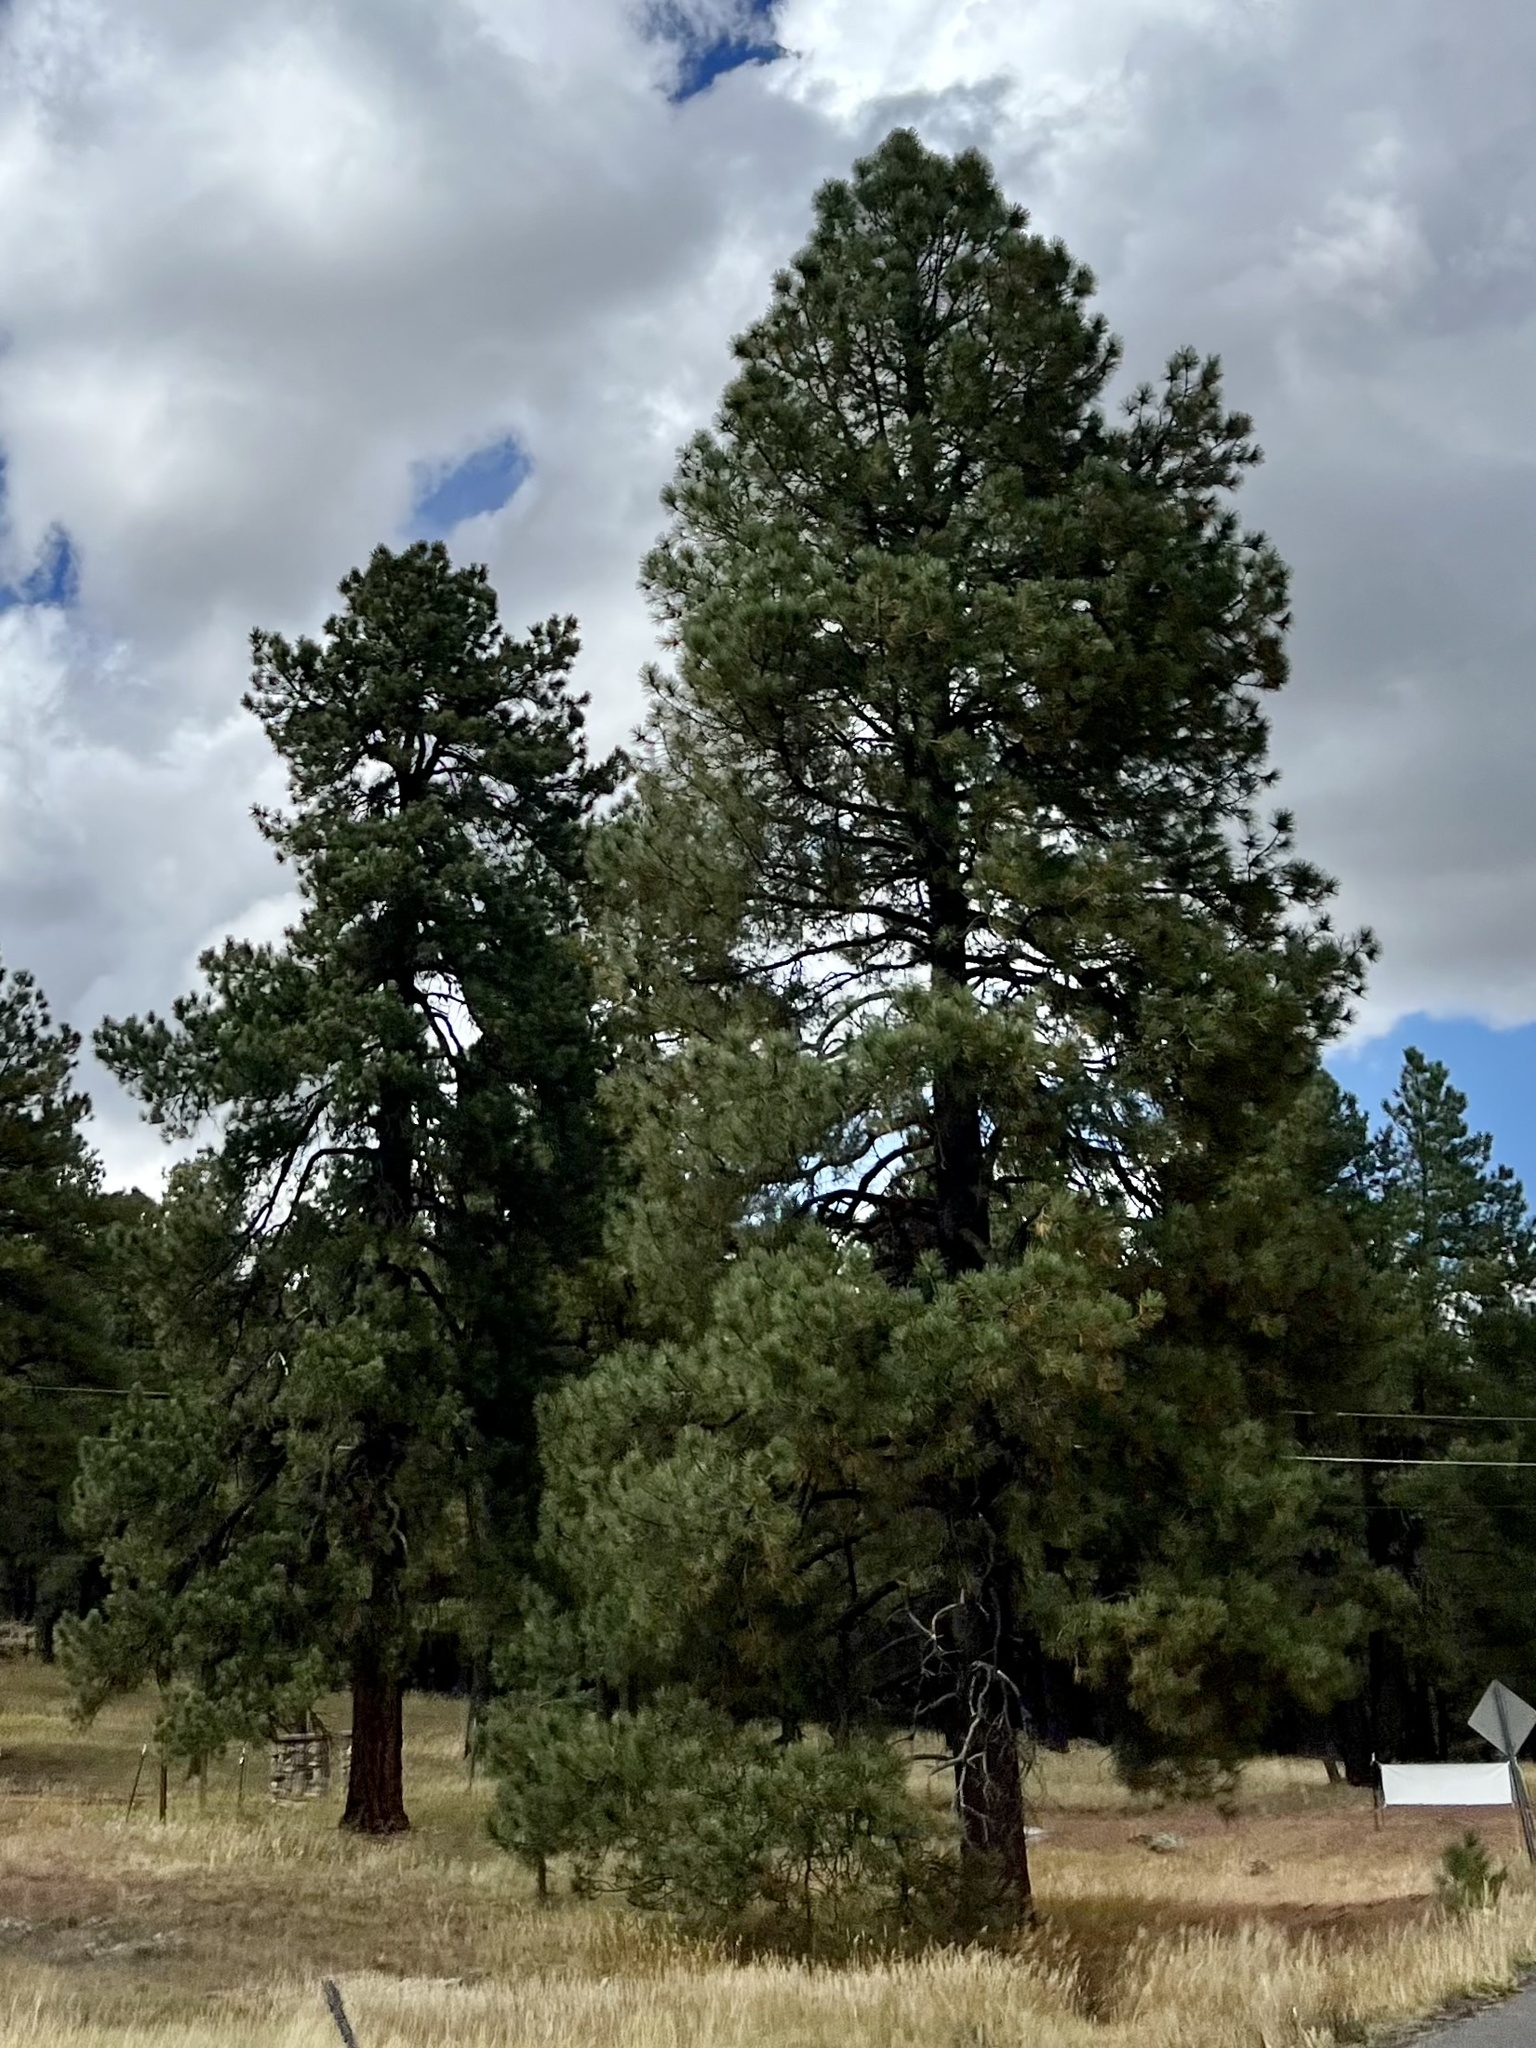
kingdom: Plantae
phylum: Tracheophyta
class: Pinopsida
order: Pinales
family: Pinaceae
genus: Pinus
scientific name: Pinus ponderosa
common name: Western yellow-pine
